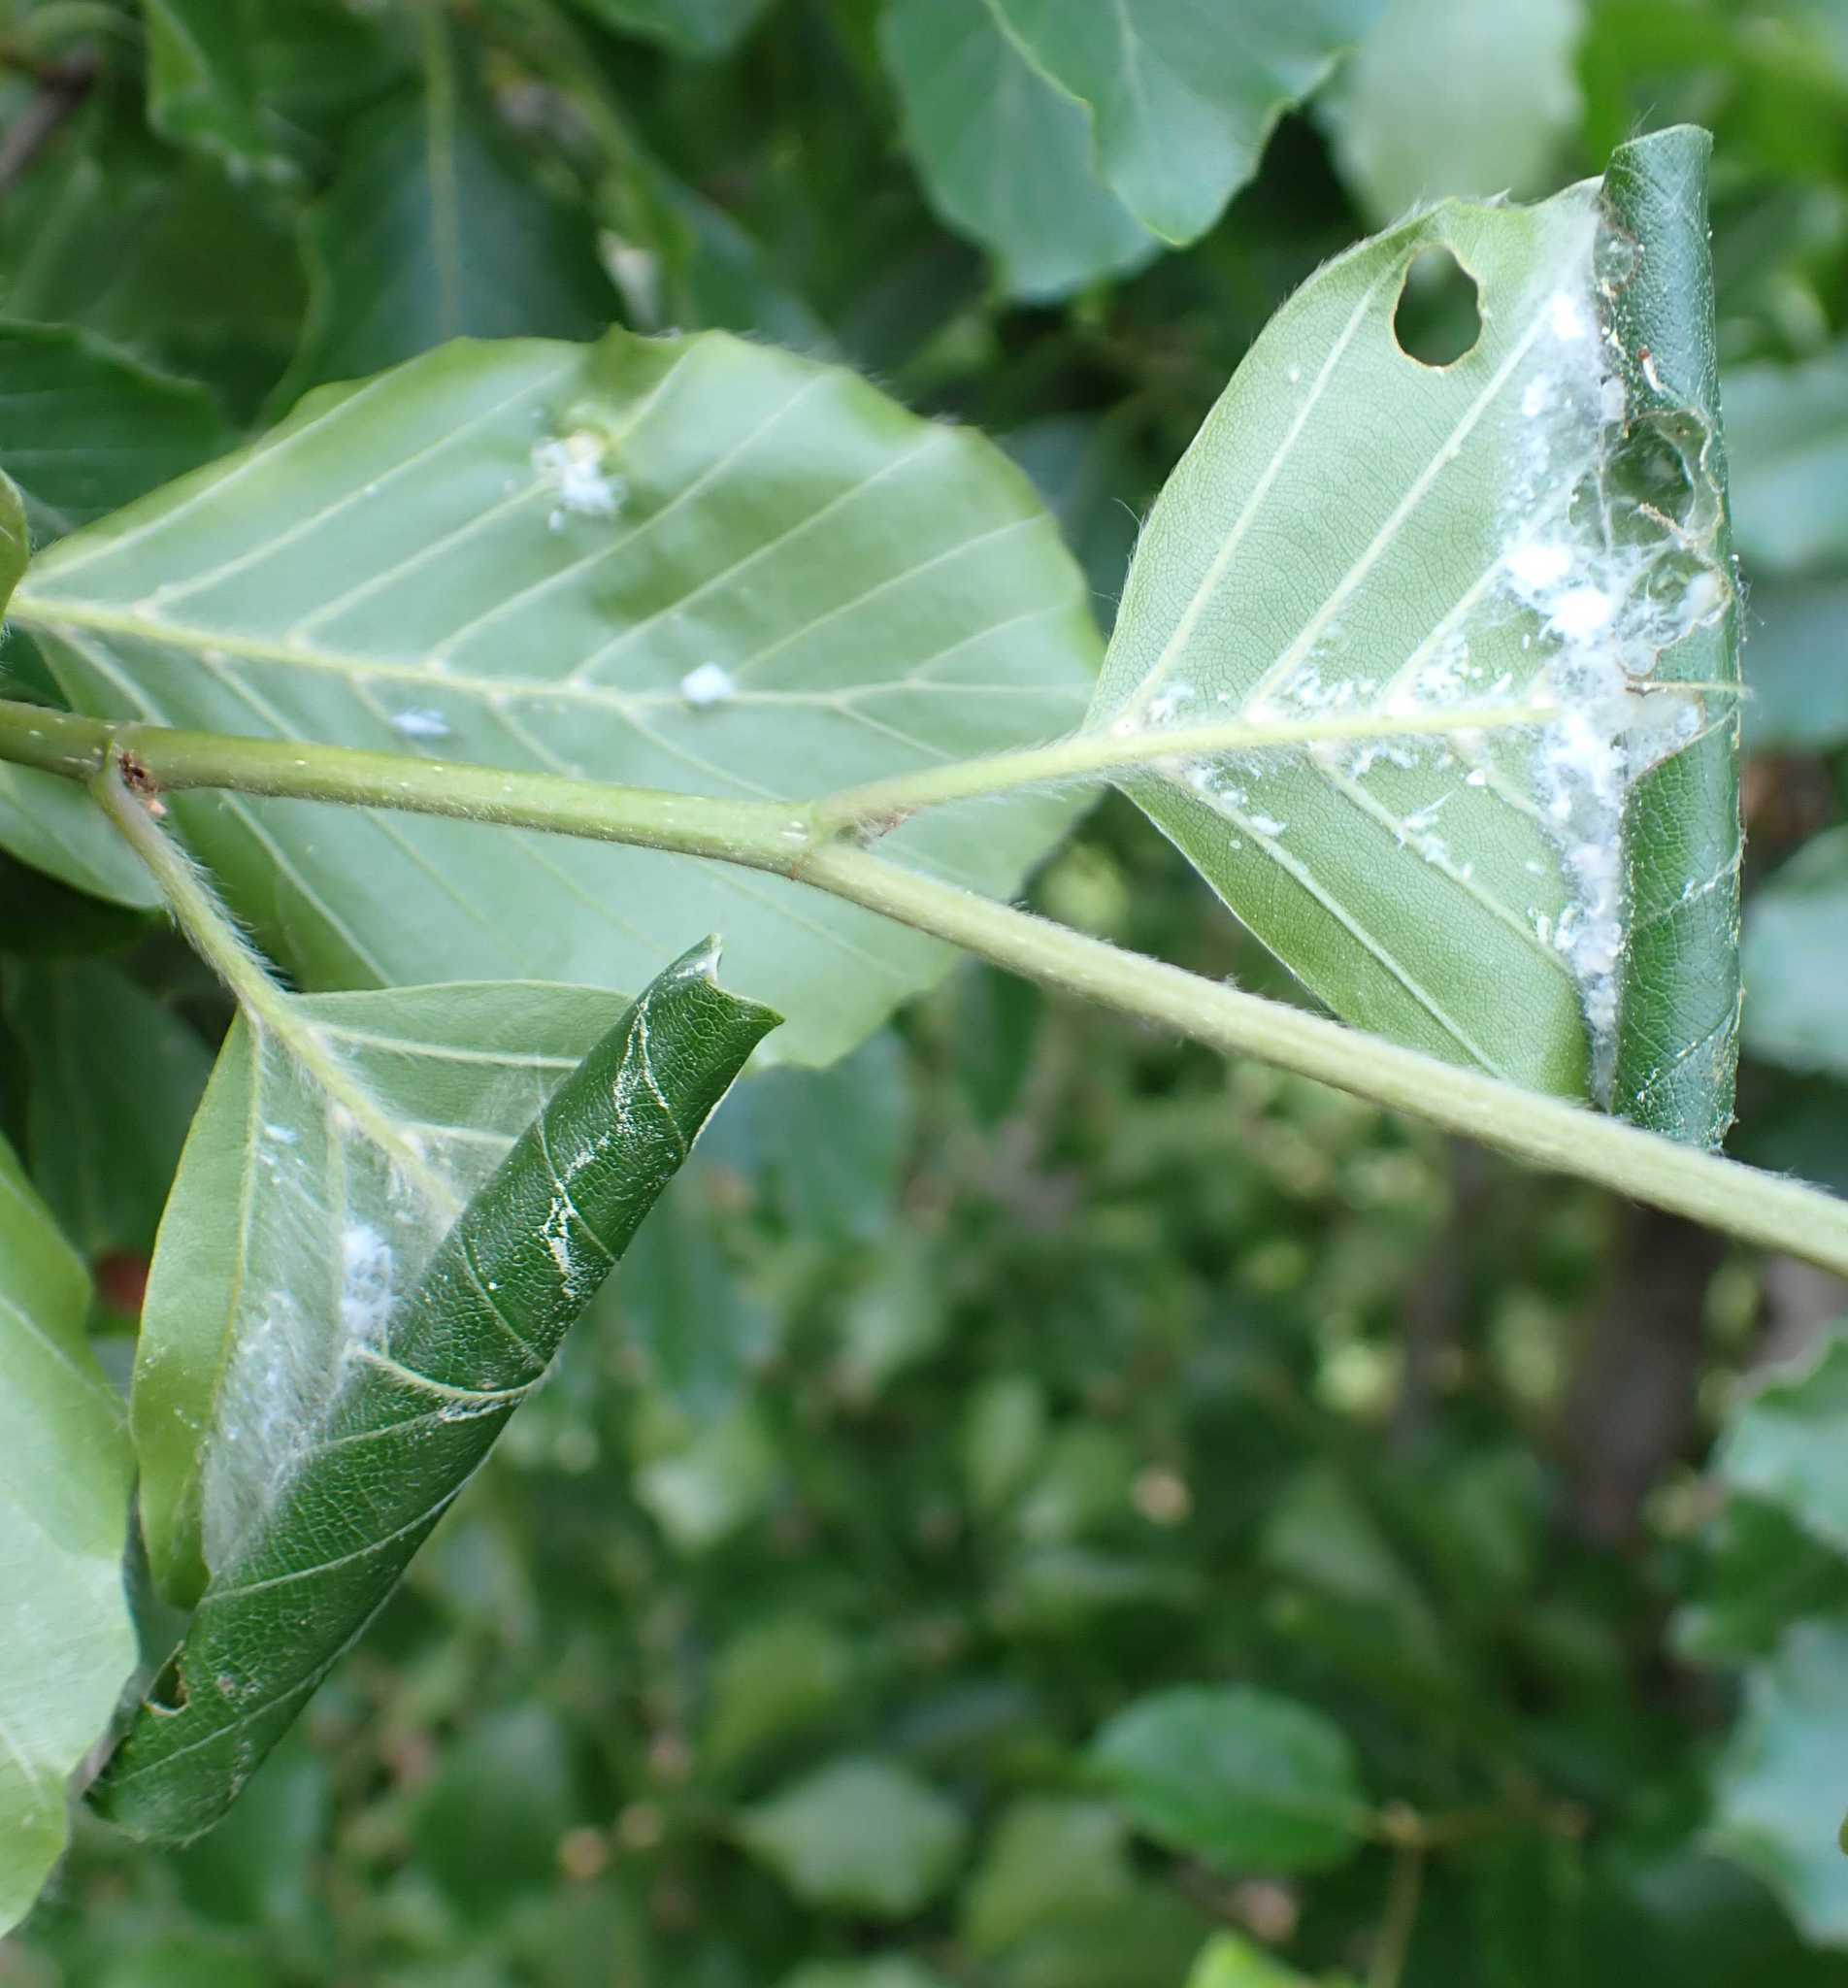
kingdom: Animalia
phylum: Arthropoda
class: Insecta
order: Hemiptera
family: Aphididae
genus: Phyllaphis
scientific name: Phyllaphis fagi
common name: Beech aphid
